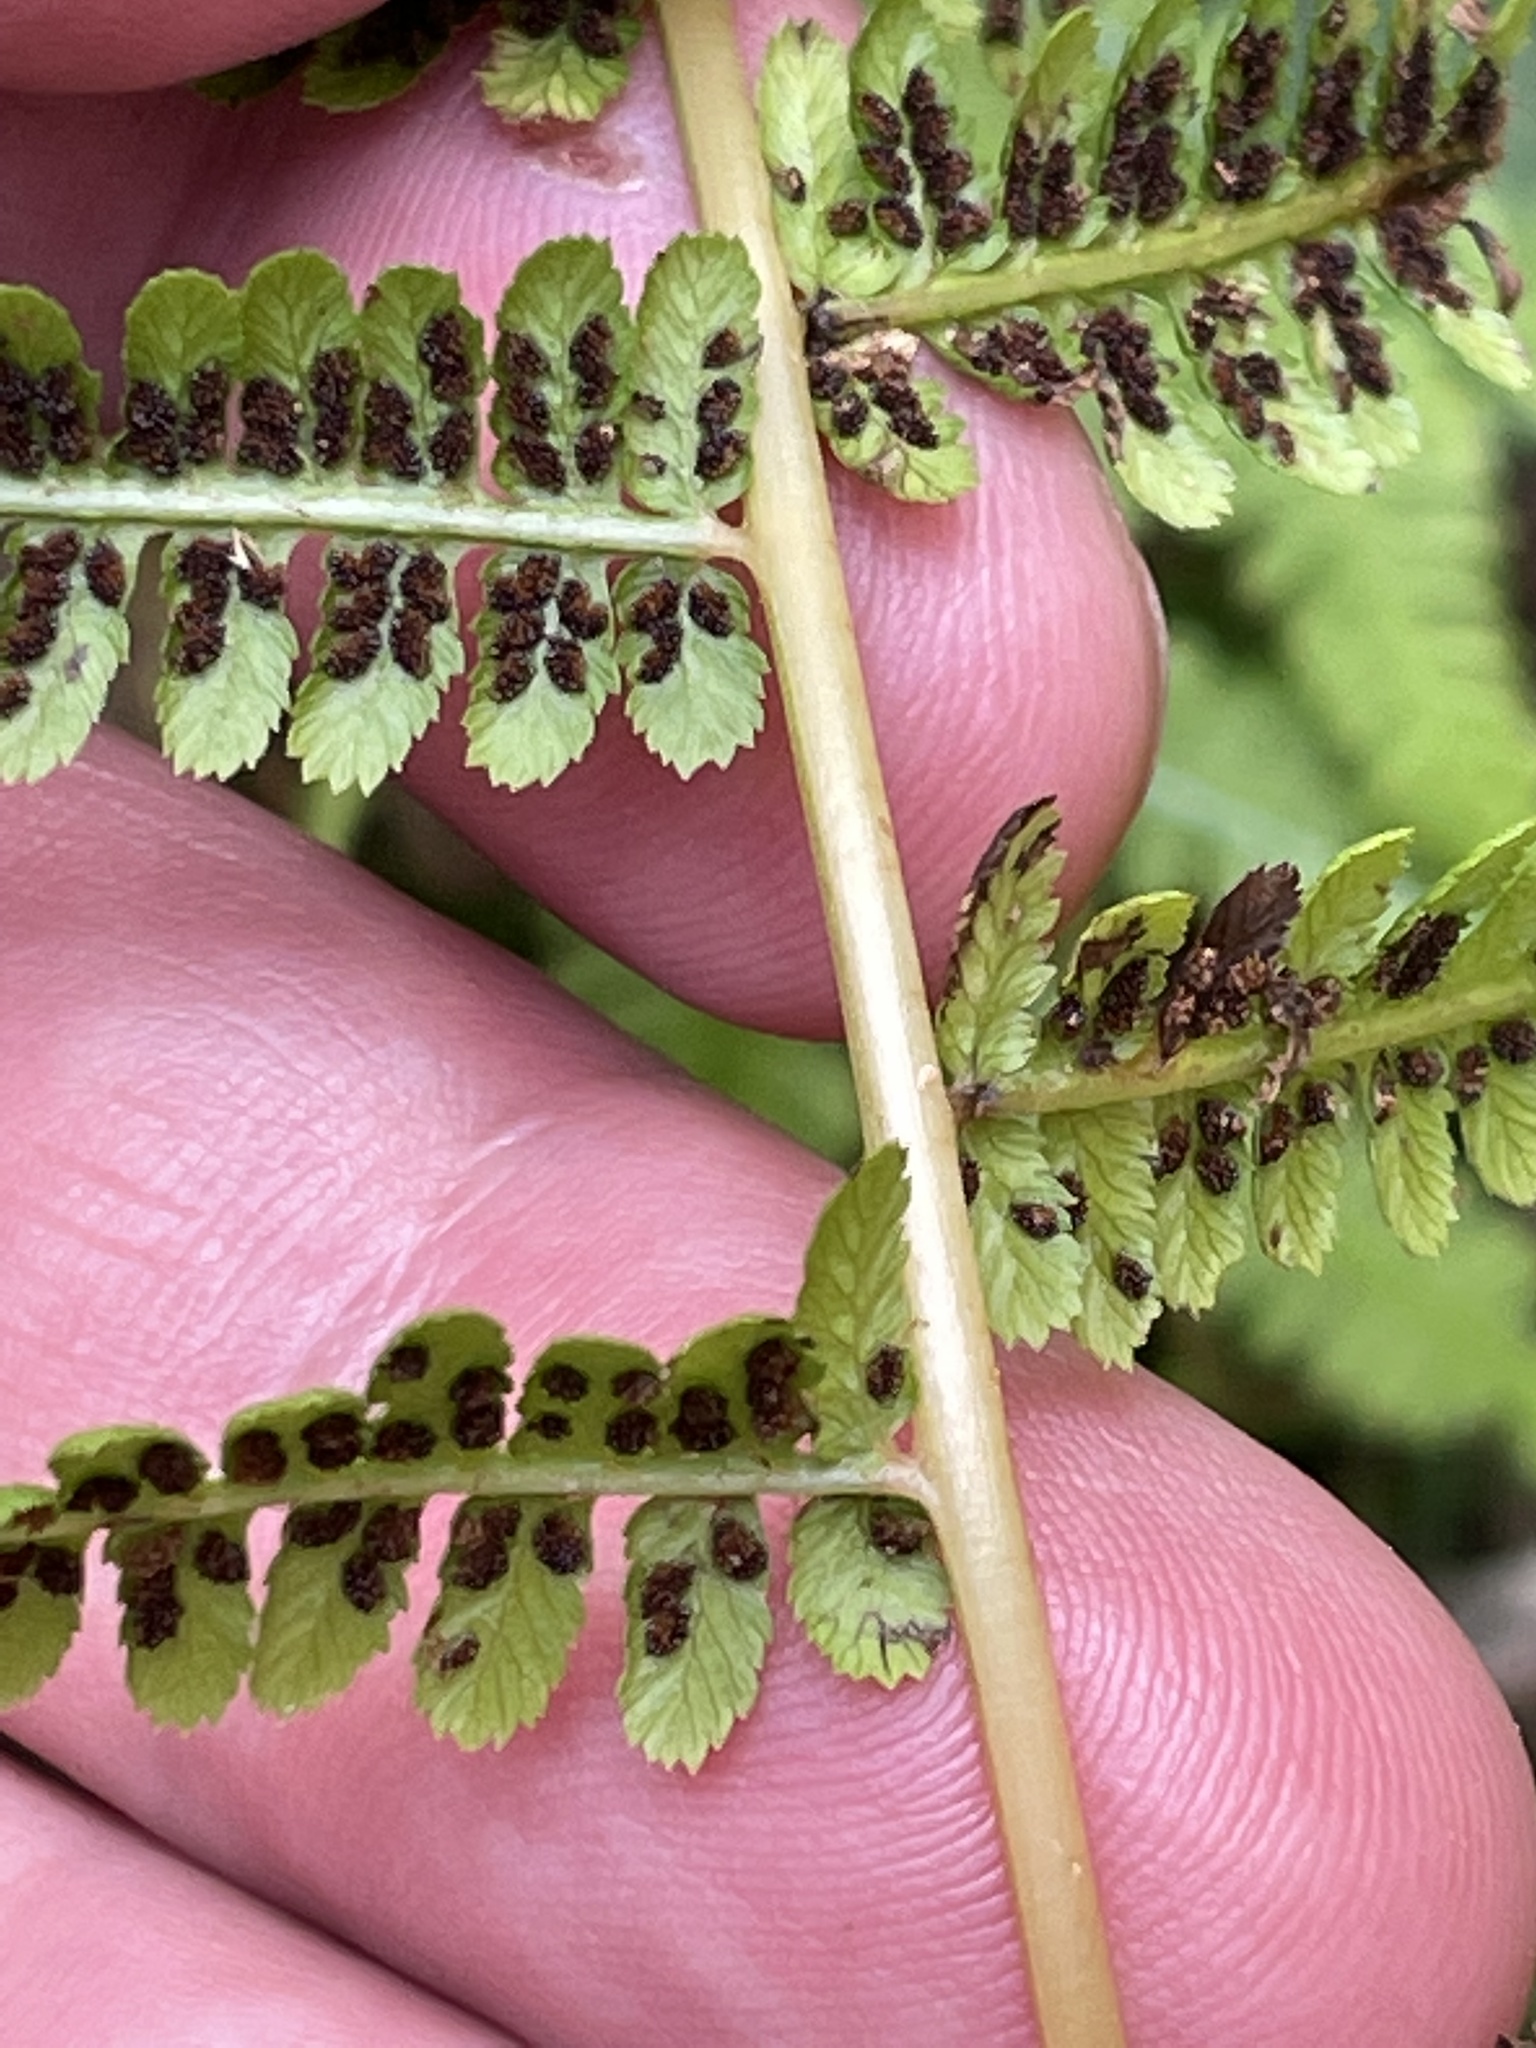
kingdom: Plantae
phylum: Tracheophyta
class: Polypodiopsida
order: Polypodiales
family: Athyriaceae
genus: Athyrium
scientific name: Athyrium angustum
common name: Northern lady fern
